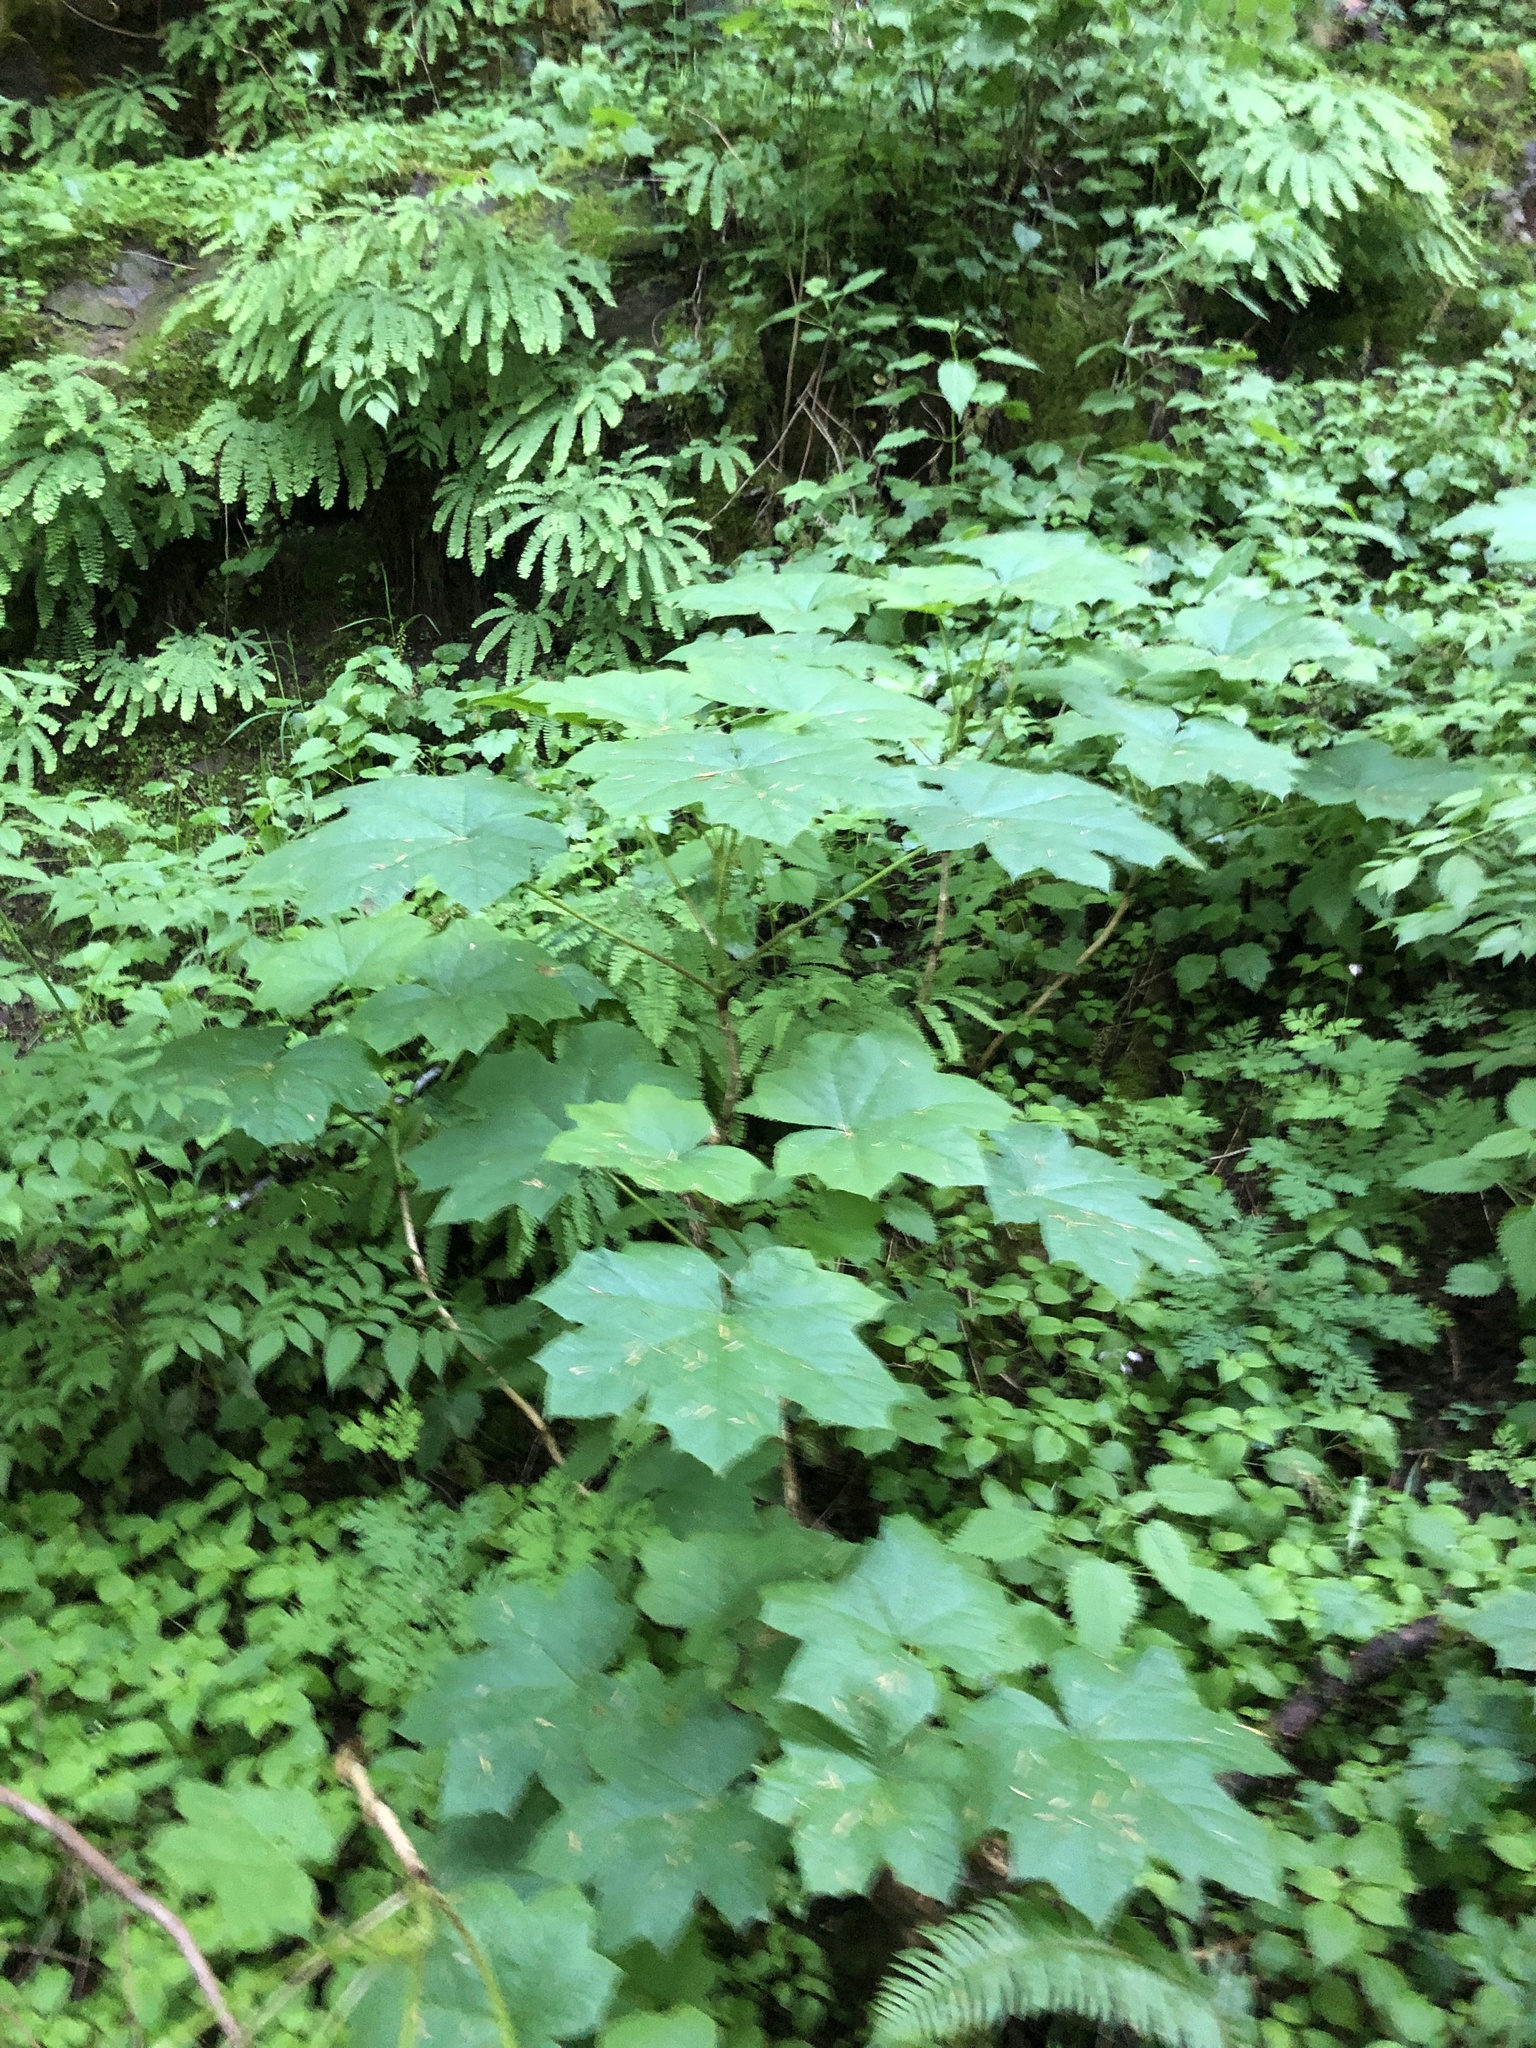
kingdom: Plantae
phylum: Tracheophyta
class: Magnoliopsida
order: Apiales
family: Araliaceae
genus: Oplopanax
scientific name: Oplopanax horridus
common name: Devil's walking-stick
